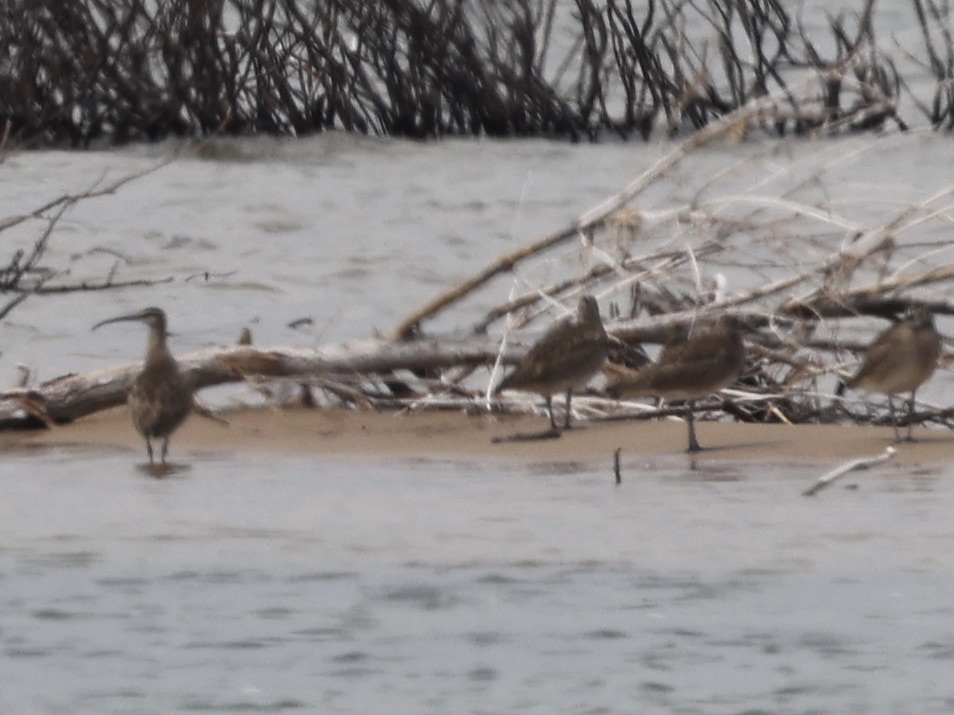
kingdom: Animalia
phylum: Chordata
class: Aves
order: Charadriiformes
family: Scolopacidae
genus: Numenius
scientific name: Numenius phaeopus
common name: Whimbrel
